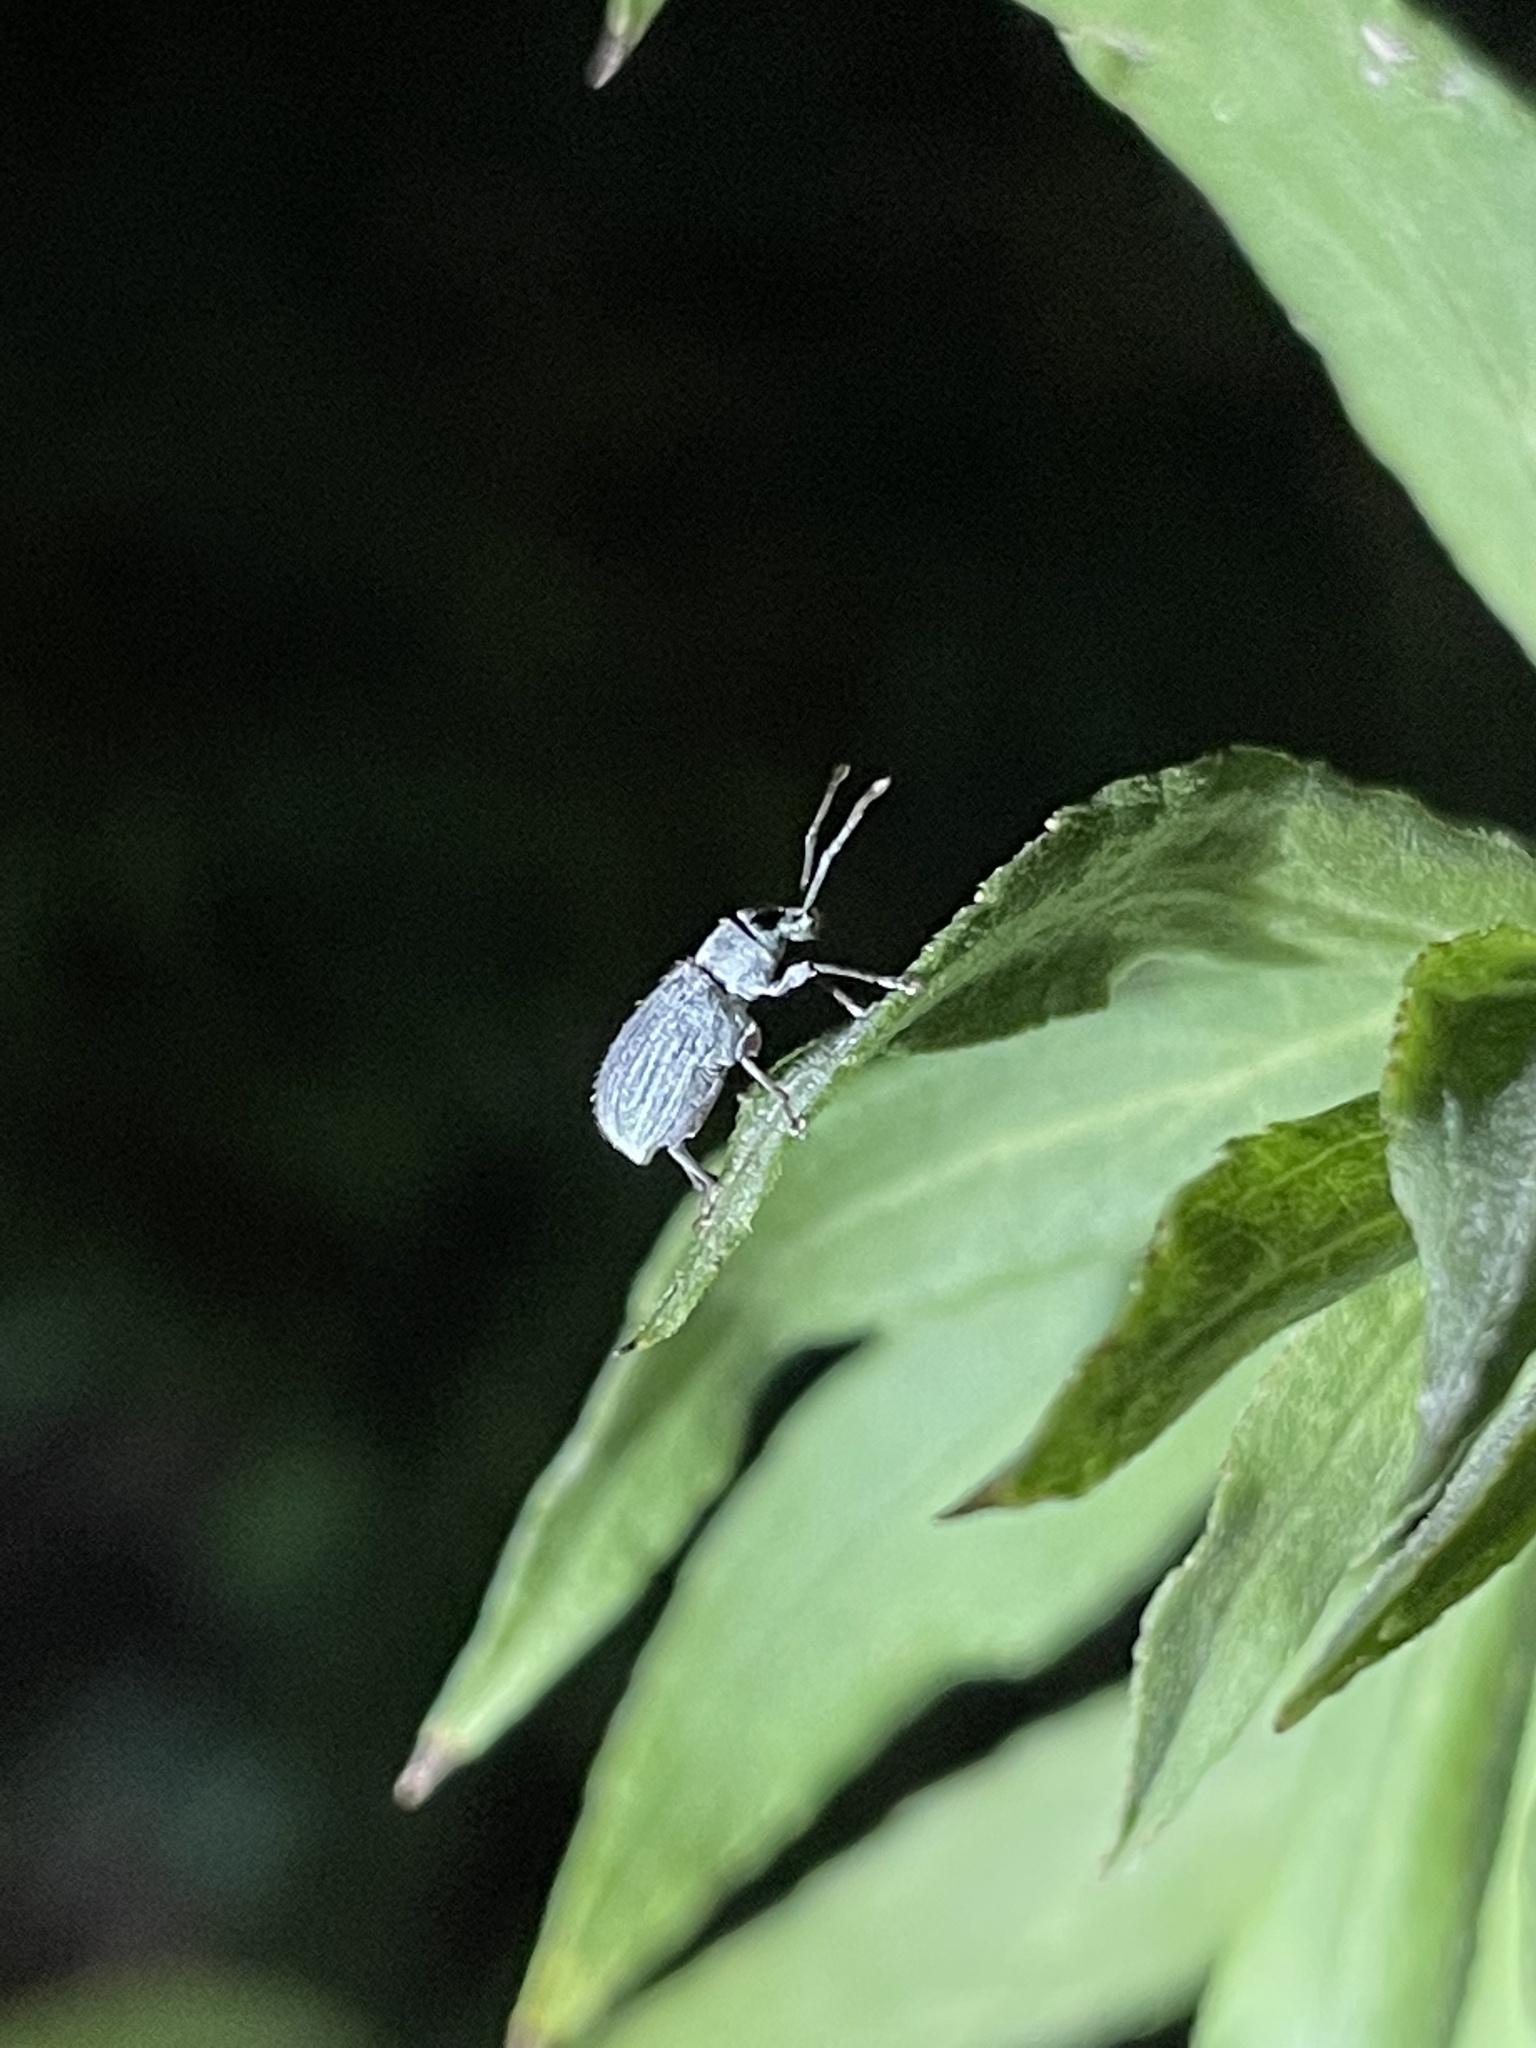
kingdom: Animalia
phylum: Arthropoda
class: Insecta
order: Coleoptera
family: Curculionidae
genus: Cyrtepistomus
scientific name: Cyrtepistomus castaneus
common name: Weevil
